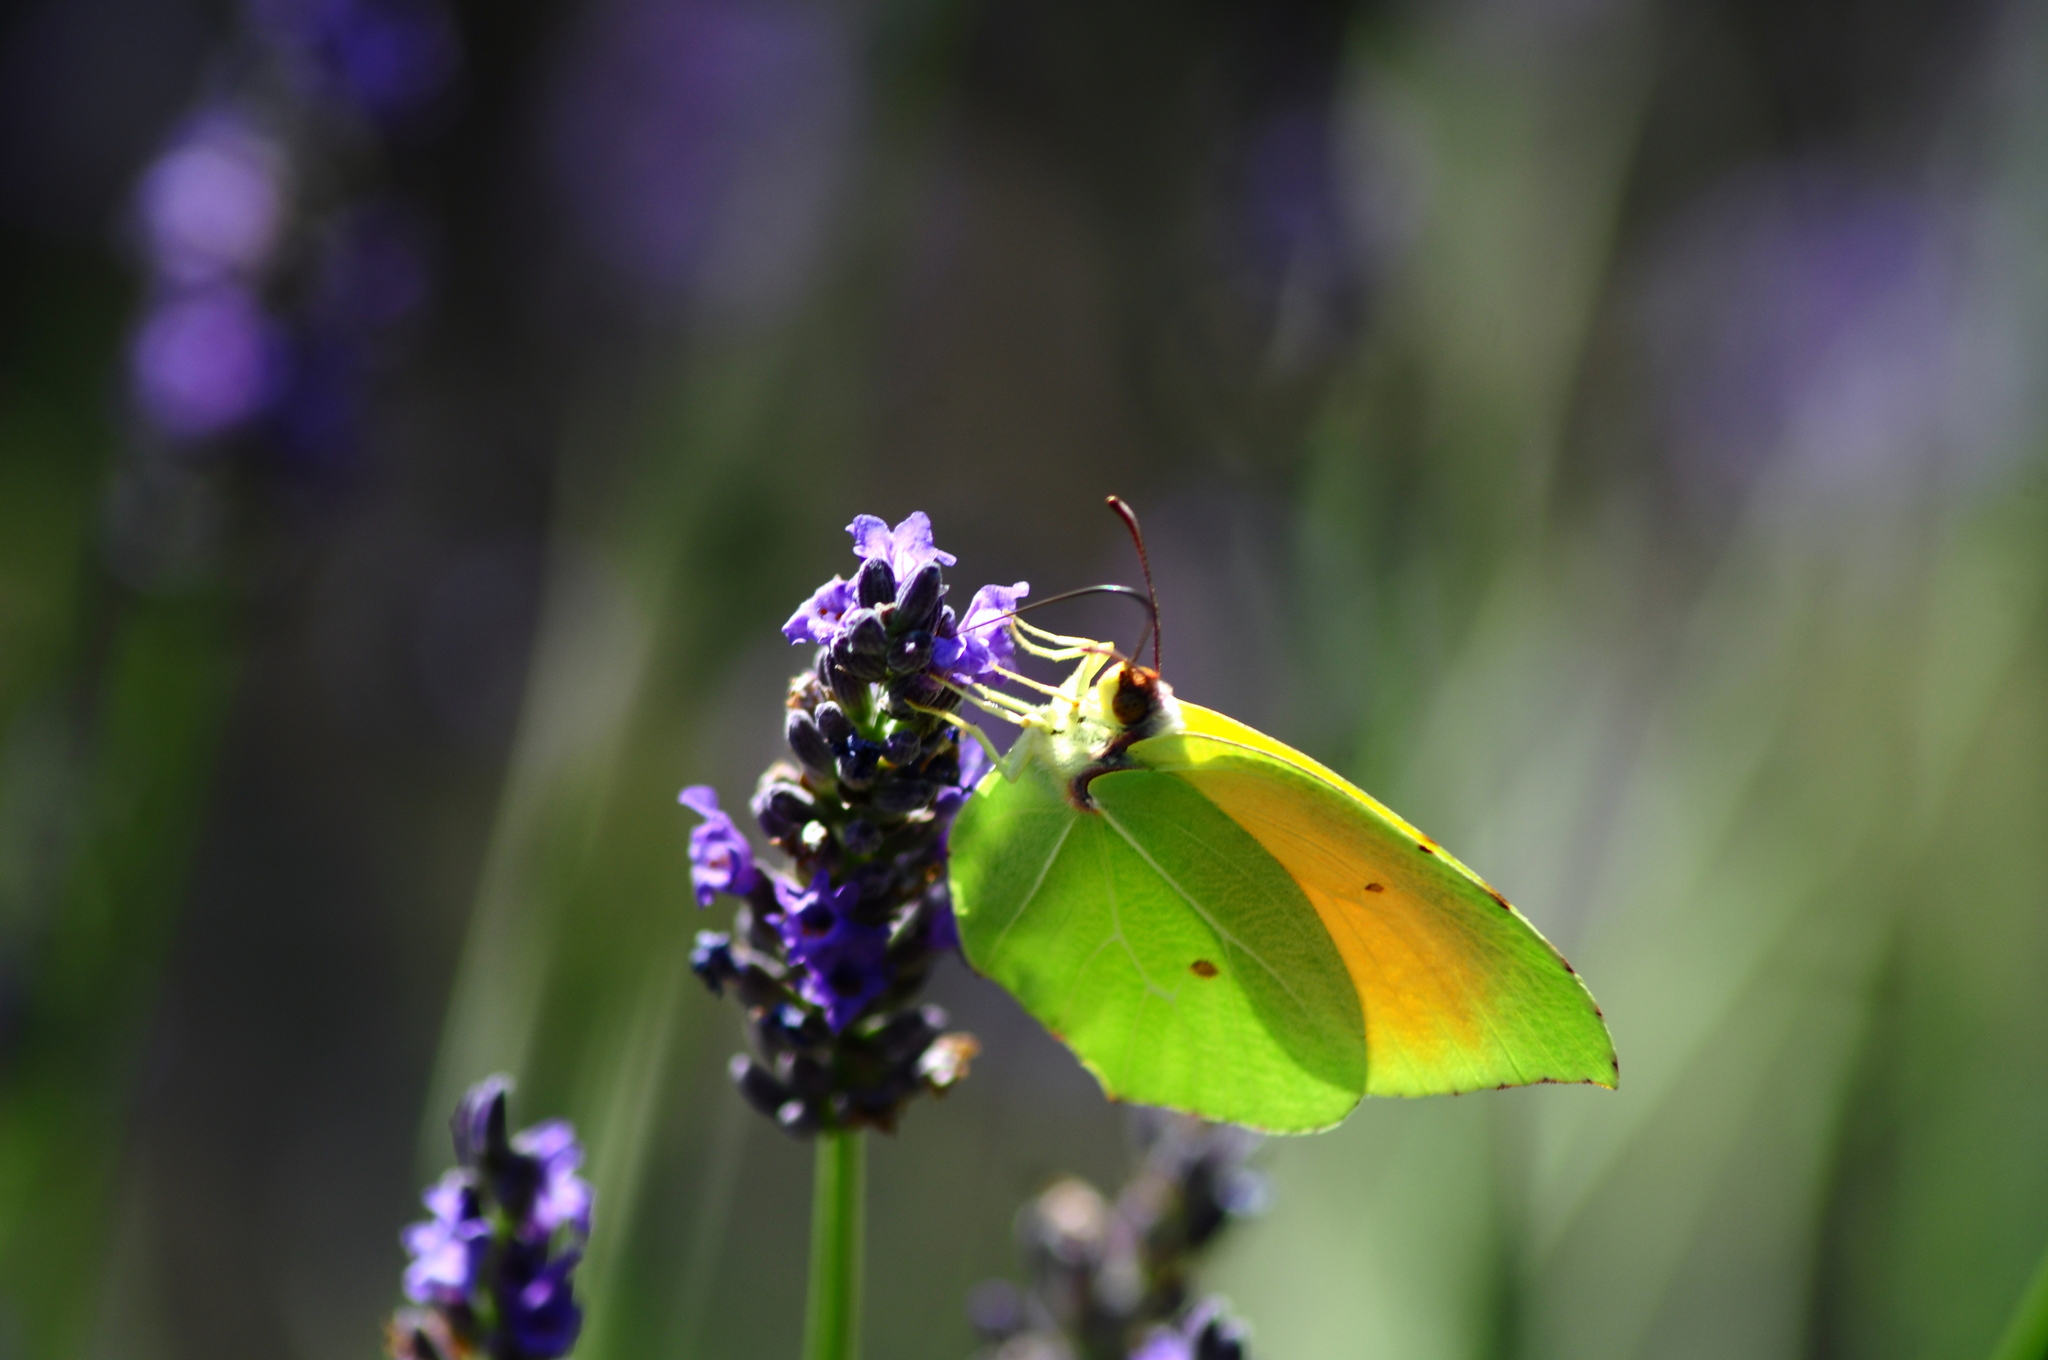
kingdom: Animalia
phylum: Arthropoda
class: Insecta
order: Lepidoptera
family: Pieridae
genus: Gonepteryx
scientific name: Gonepteryx cleopatra
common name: Cleopatra
